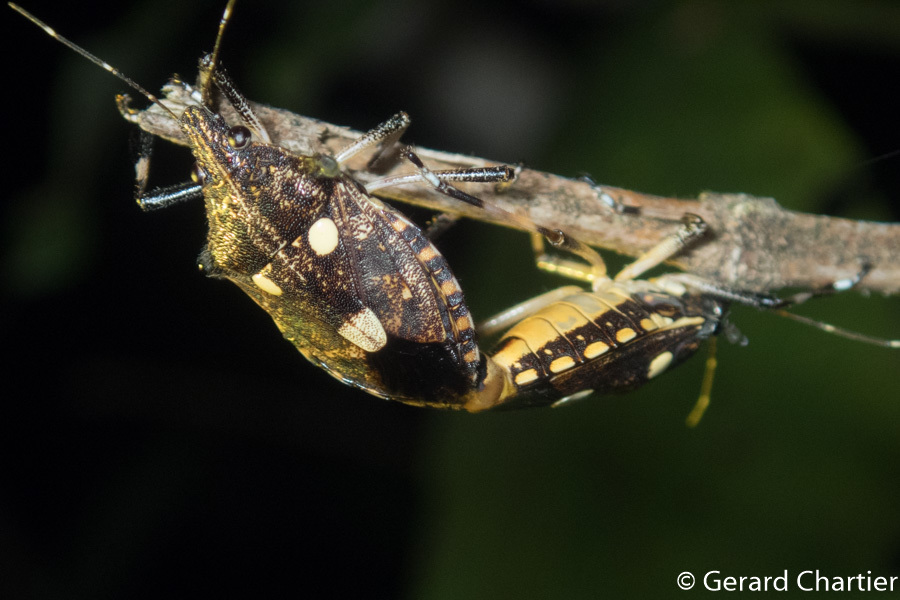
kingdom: Animalia
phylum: Arthropoda
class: Insecta
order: Hemiptera
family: Pentatomidae
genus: Dalpada
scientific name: Dalpada oculata
